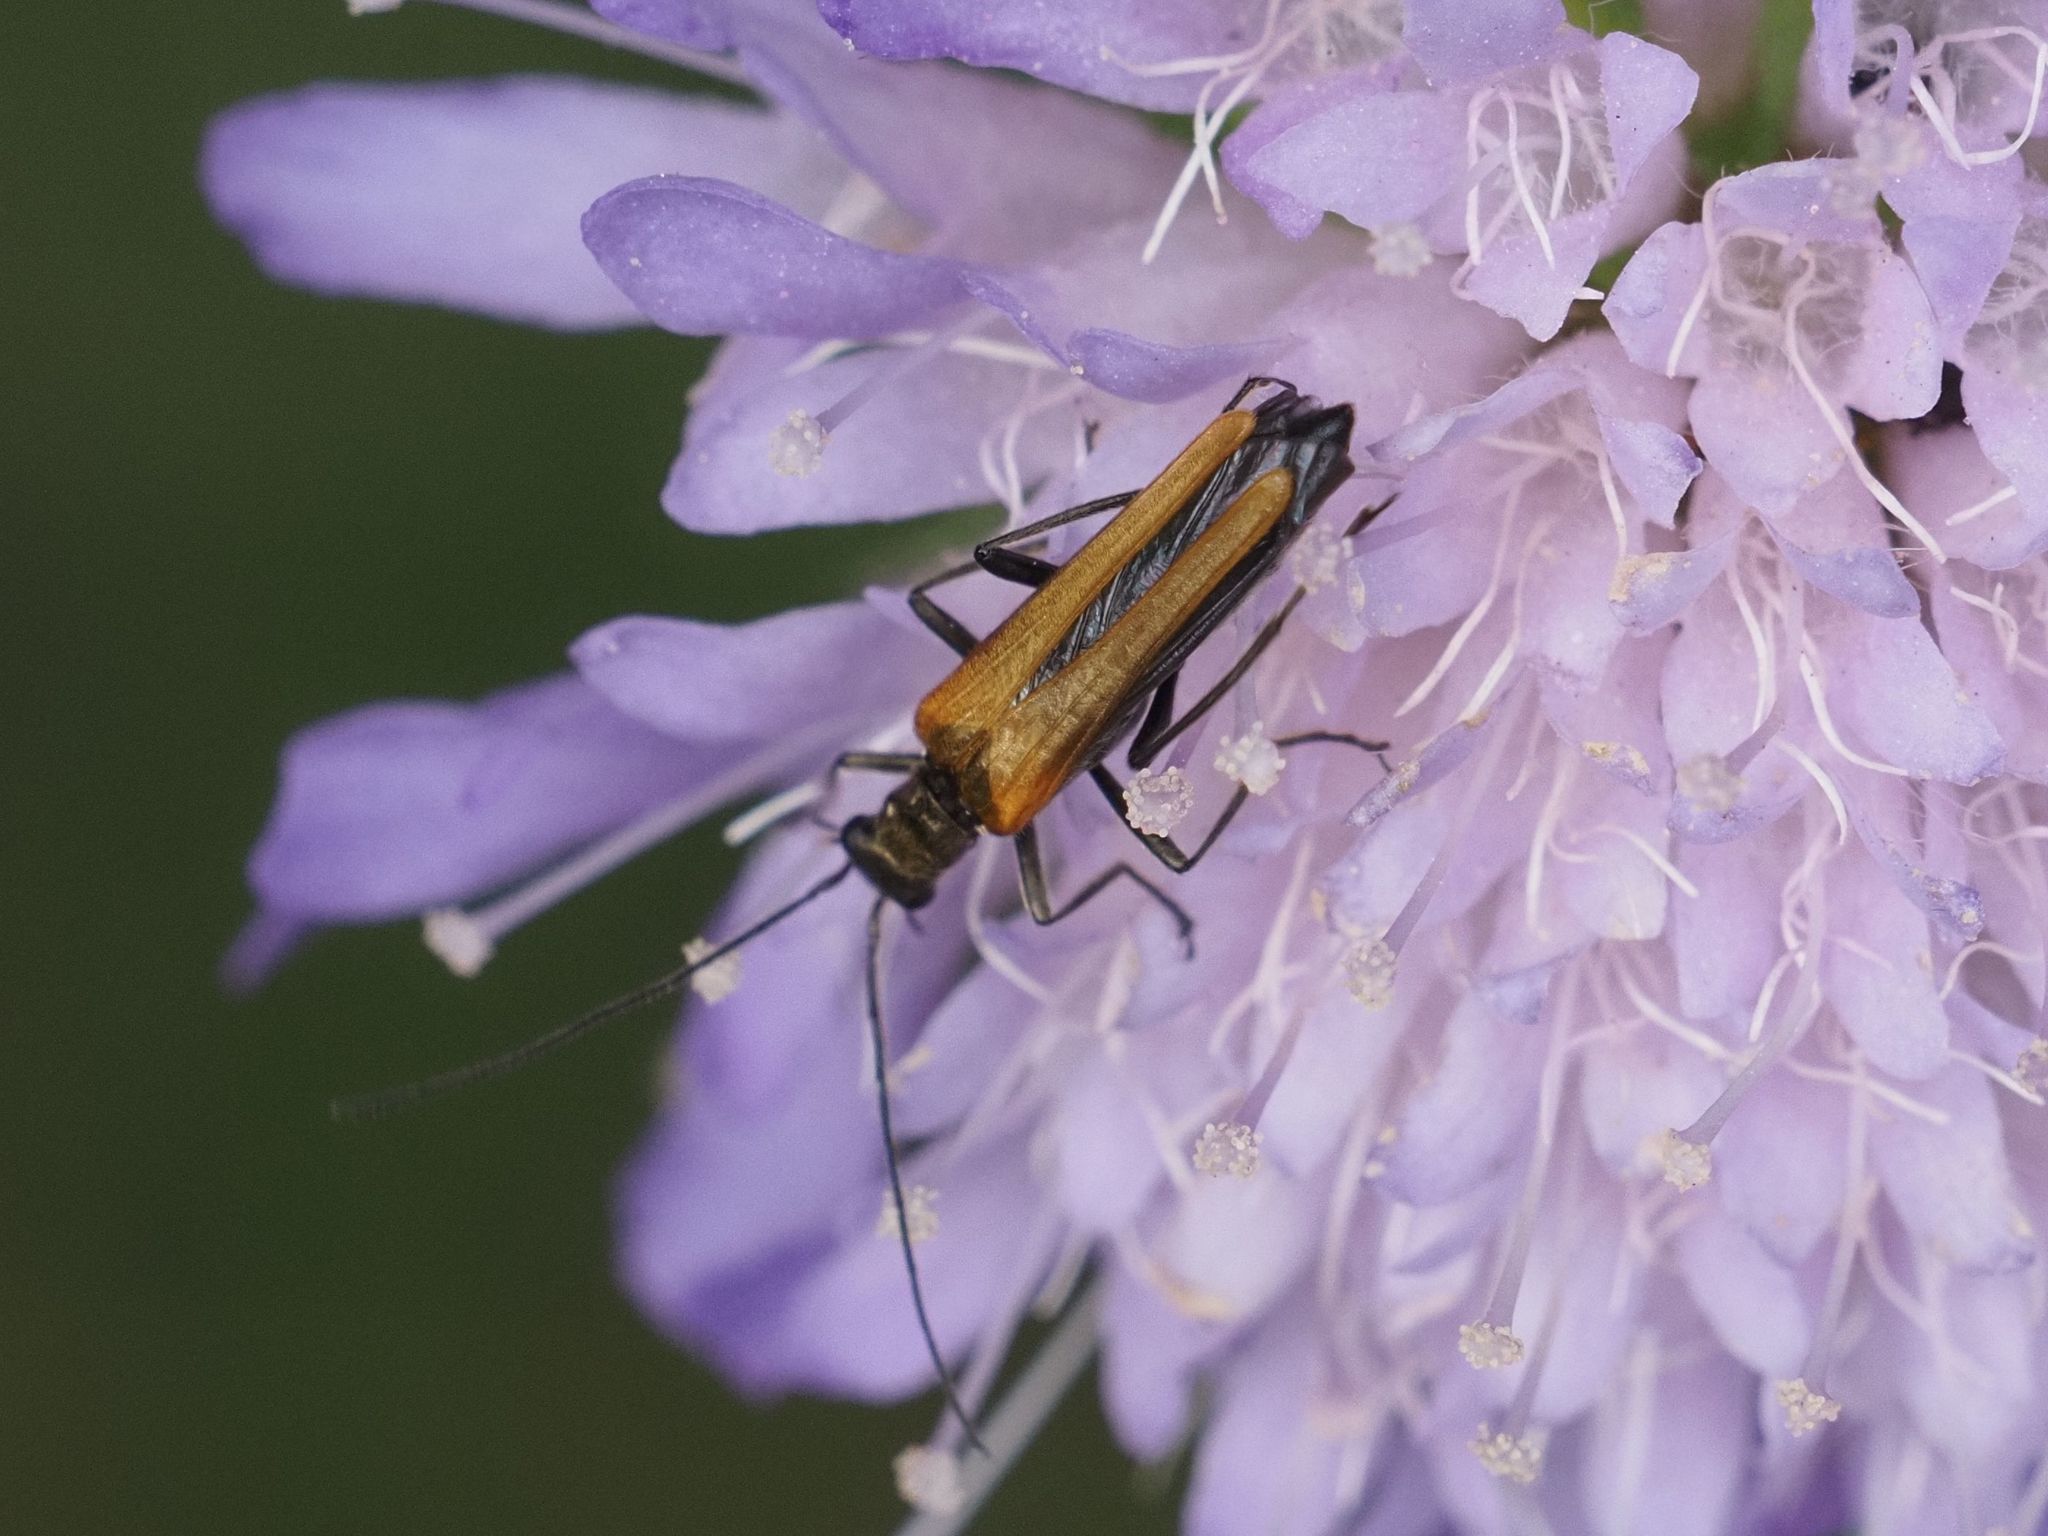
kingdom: Animalia
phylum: Arthropoda
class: Insecta
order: Coleoptera
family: Oedemeridae
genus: Oedemera
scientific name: Oedemera femorata
